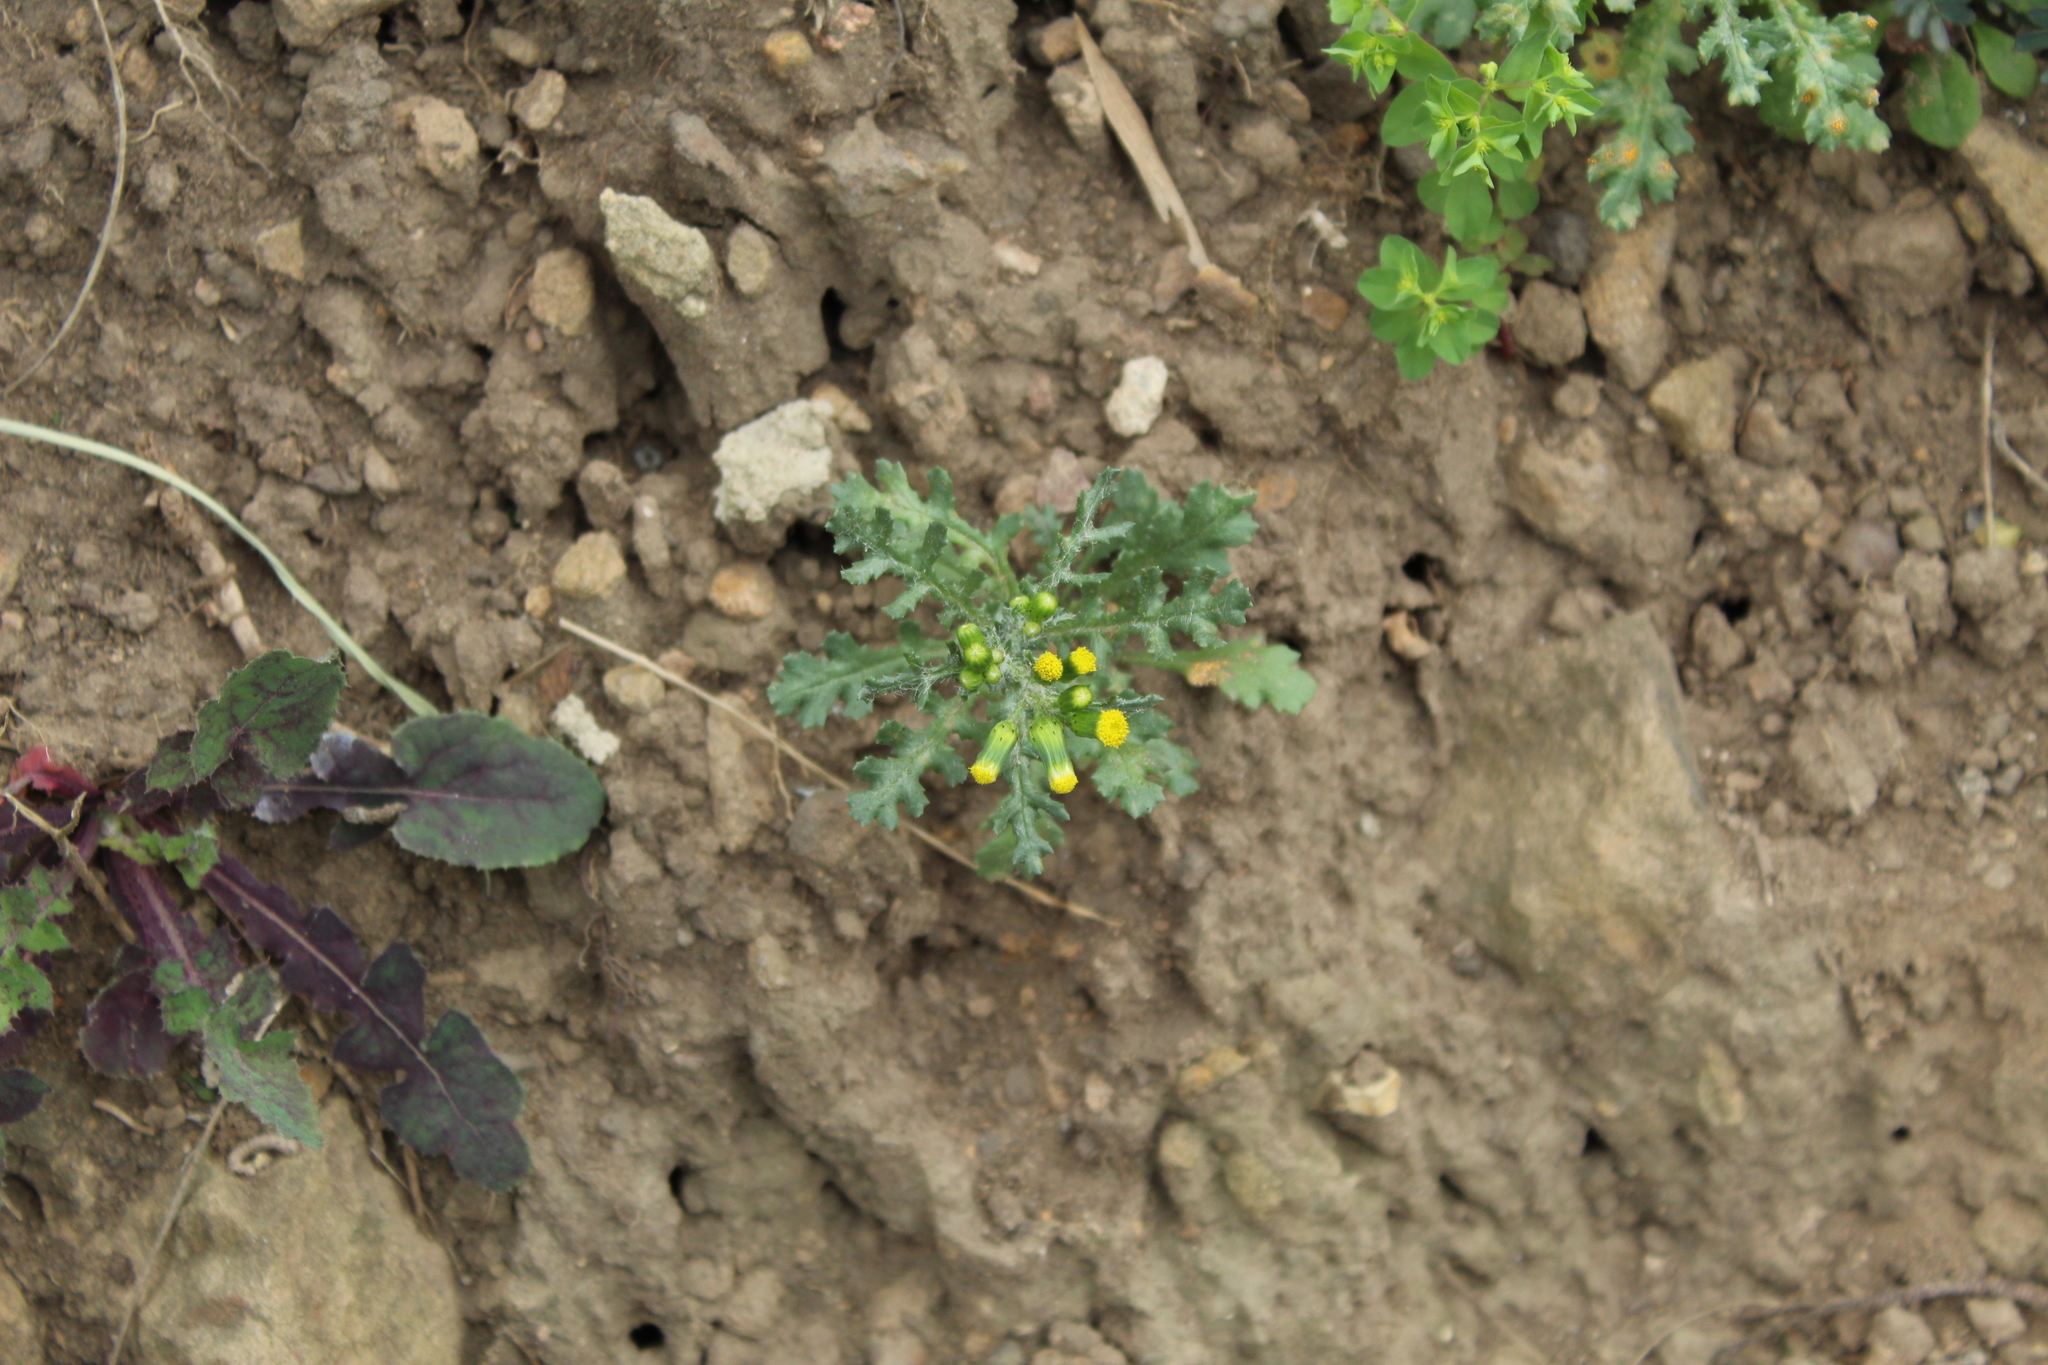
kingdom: Plantae
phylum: Tracheophyta
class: Magnoliopsida
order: Asterales
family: Asteraceae
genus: Senecio
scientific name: Senecio vulgaris
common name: Old-man-in-the-spring
